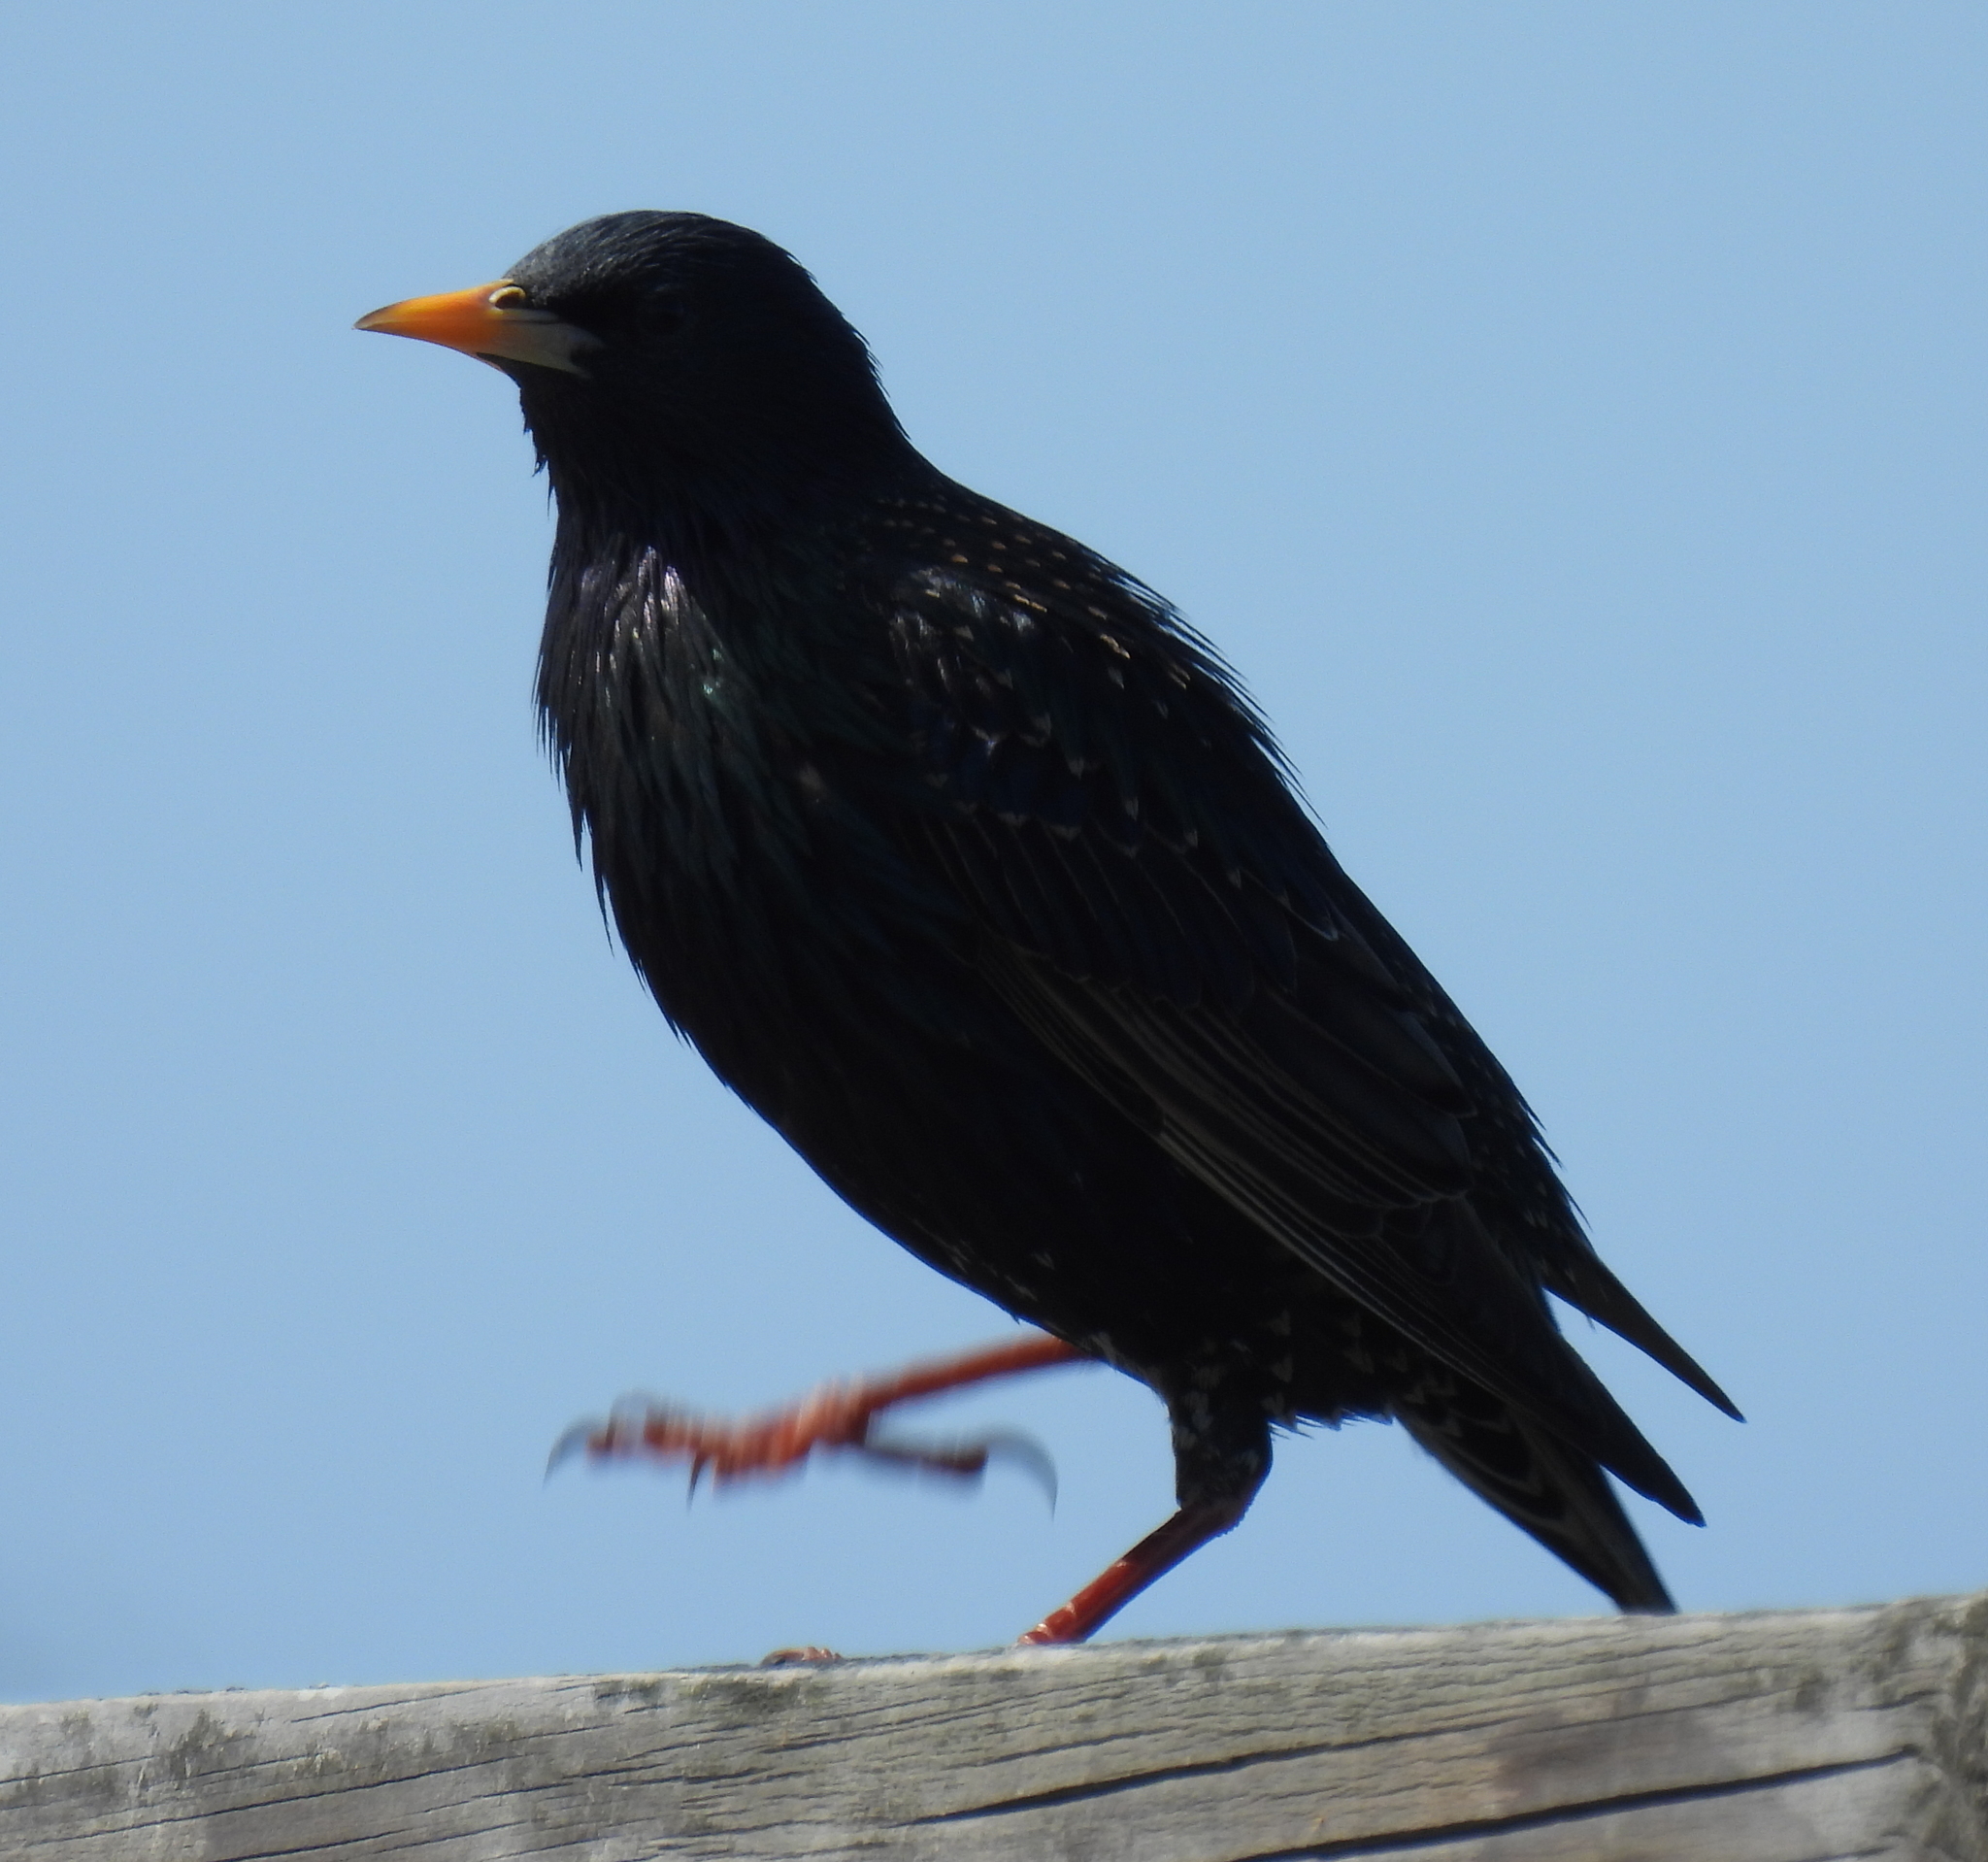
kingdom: Animalia
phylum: Chordata
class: Aves
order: Passeriformes
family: Sturnidae
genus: Sturnus
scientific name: Sturnus vulgaris
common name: Common starling
